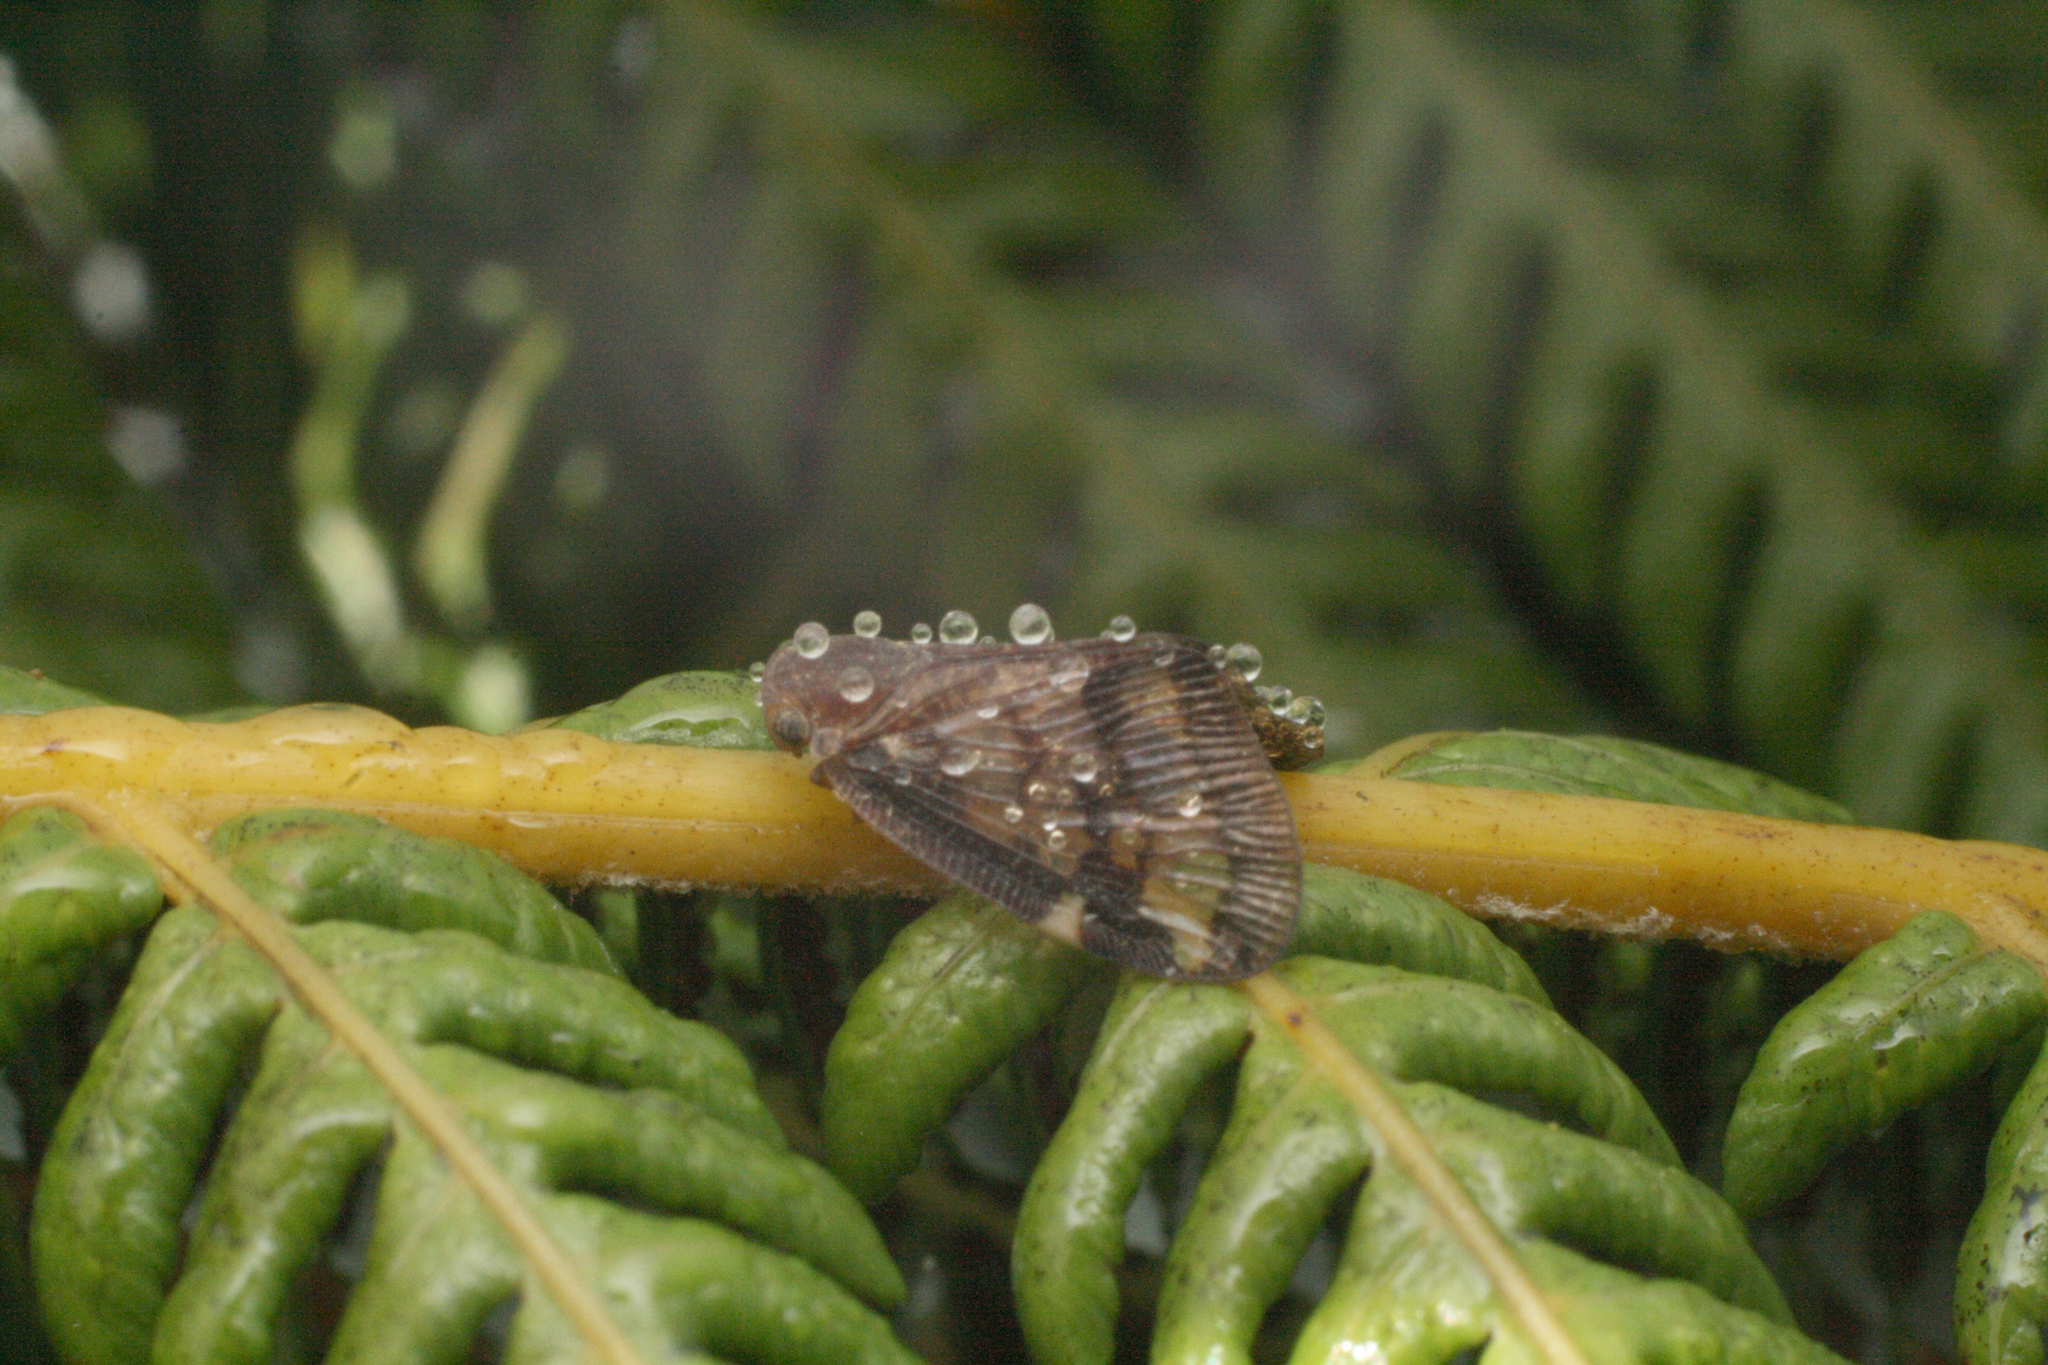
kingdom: Animalia
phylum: Arthropoda
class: Insecta
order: Hemiptera
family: Ricaniidae
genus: Scolypopa
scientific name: Scolypopa australis
